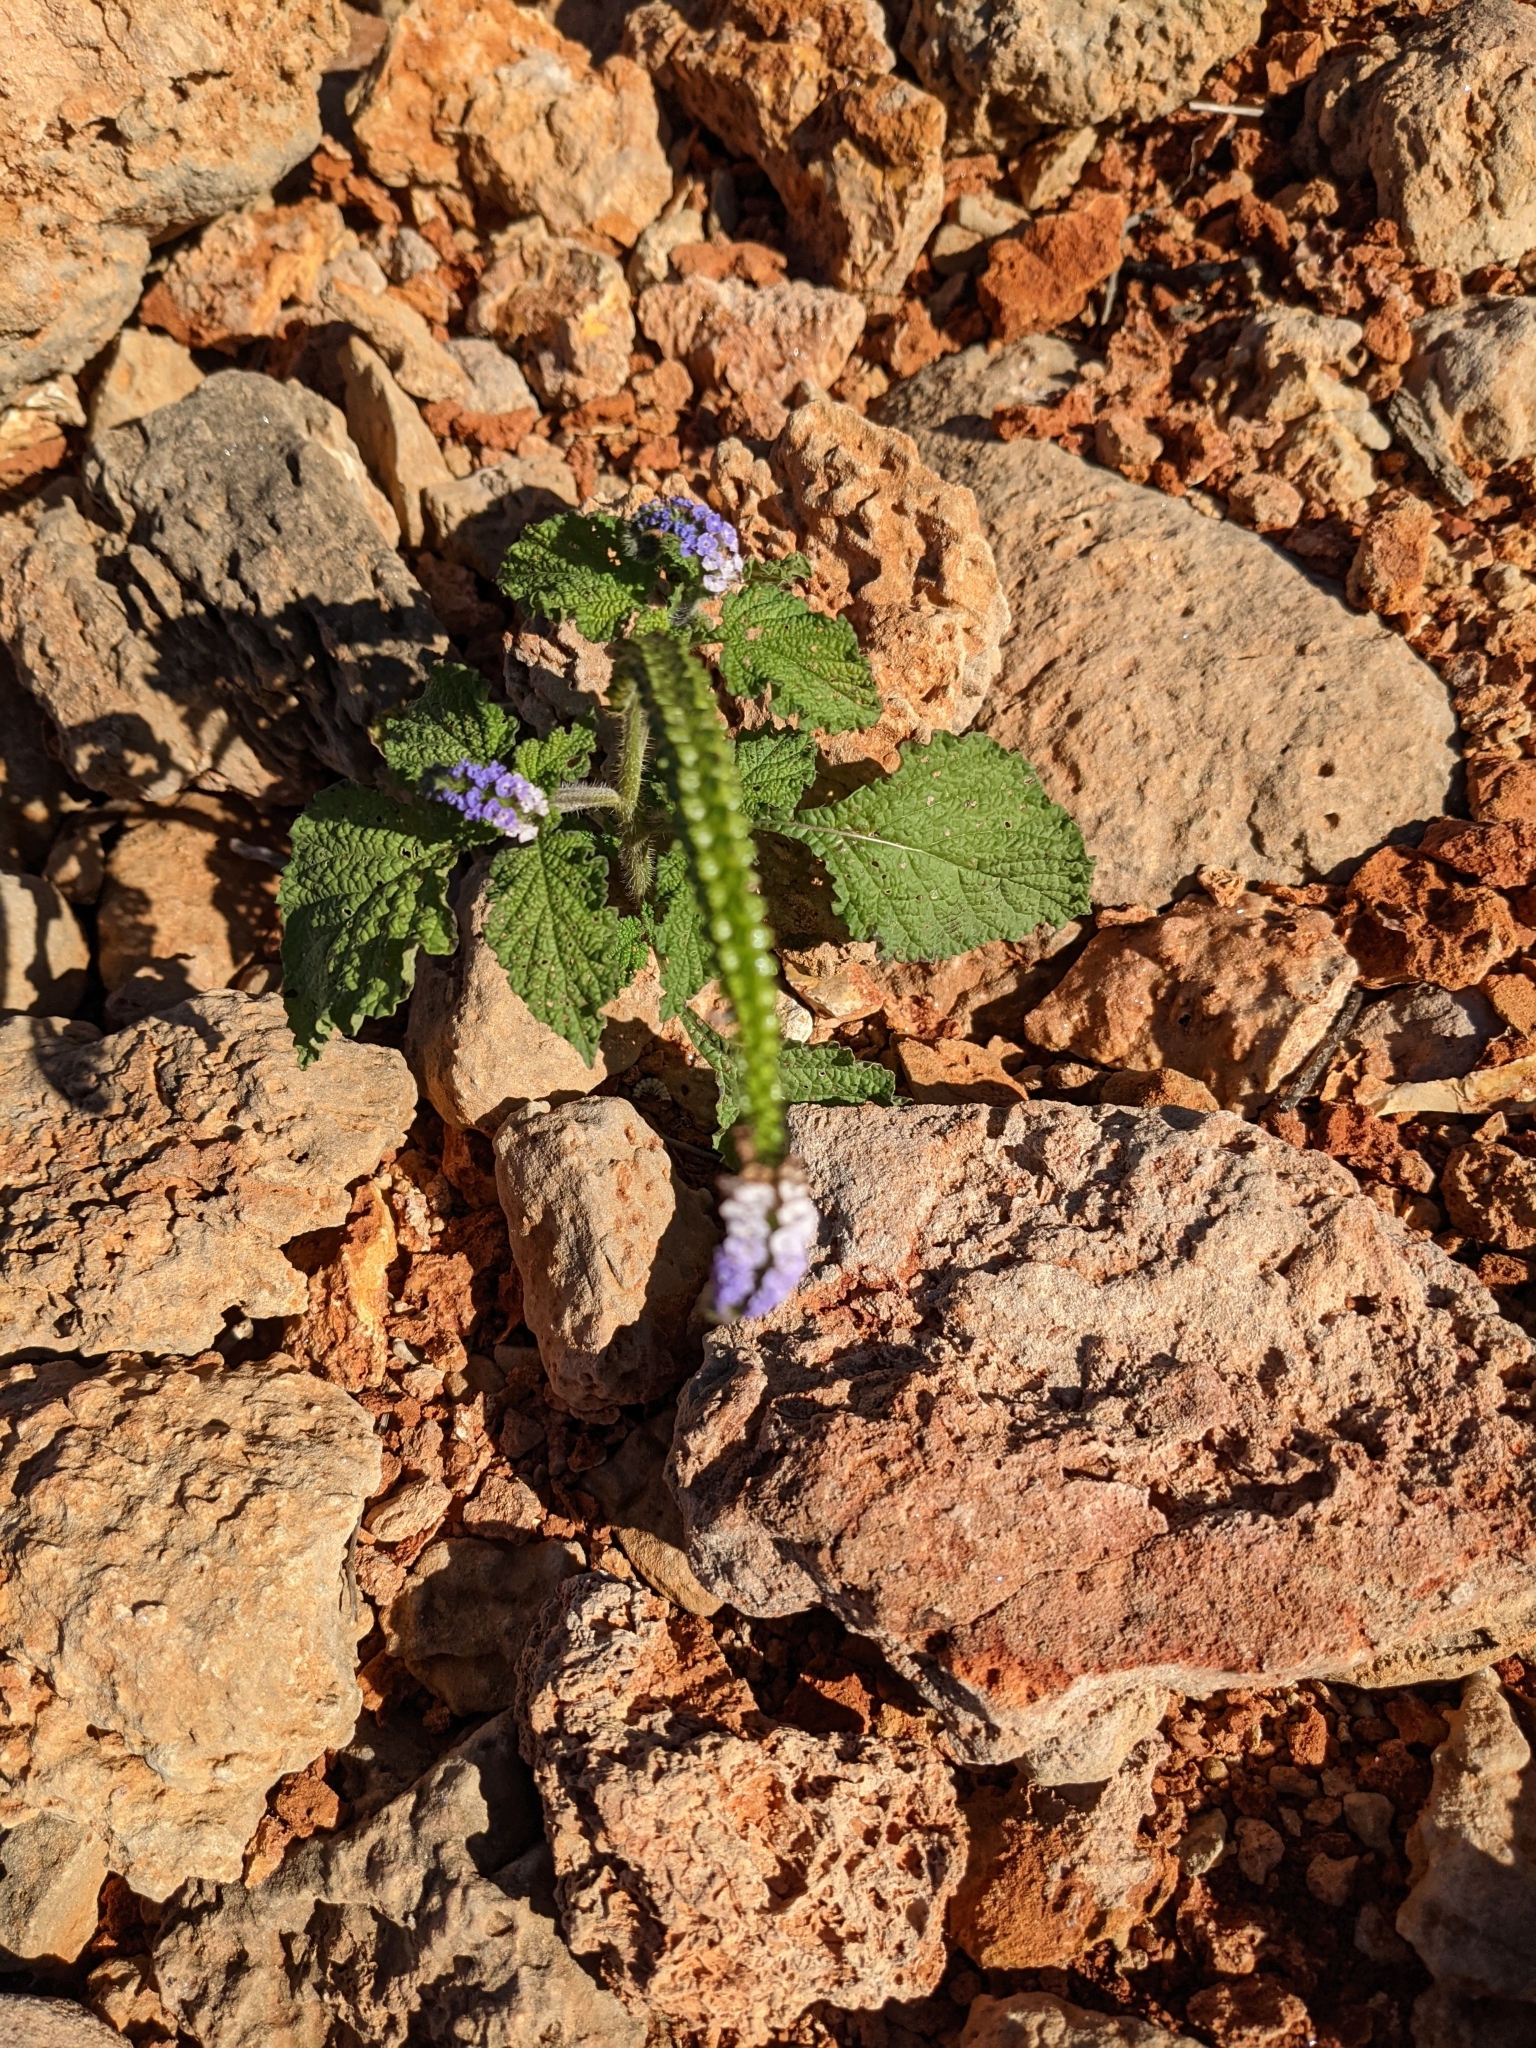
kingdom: Plantae
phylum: Tracheophyta
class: Magnoliopsida
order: Boraginales
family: Heliotropiaceae
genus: Heliotropium
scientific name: Heliotropium indicum
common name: Indian heliotrope
